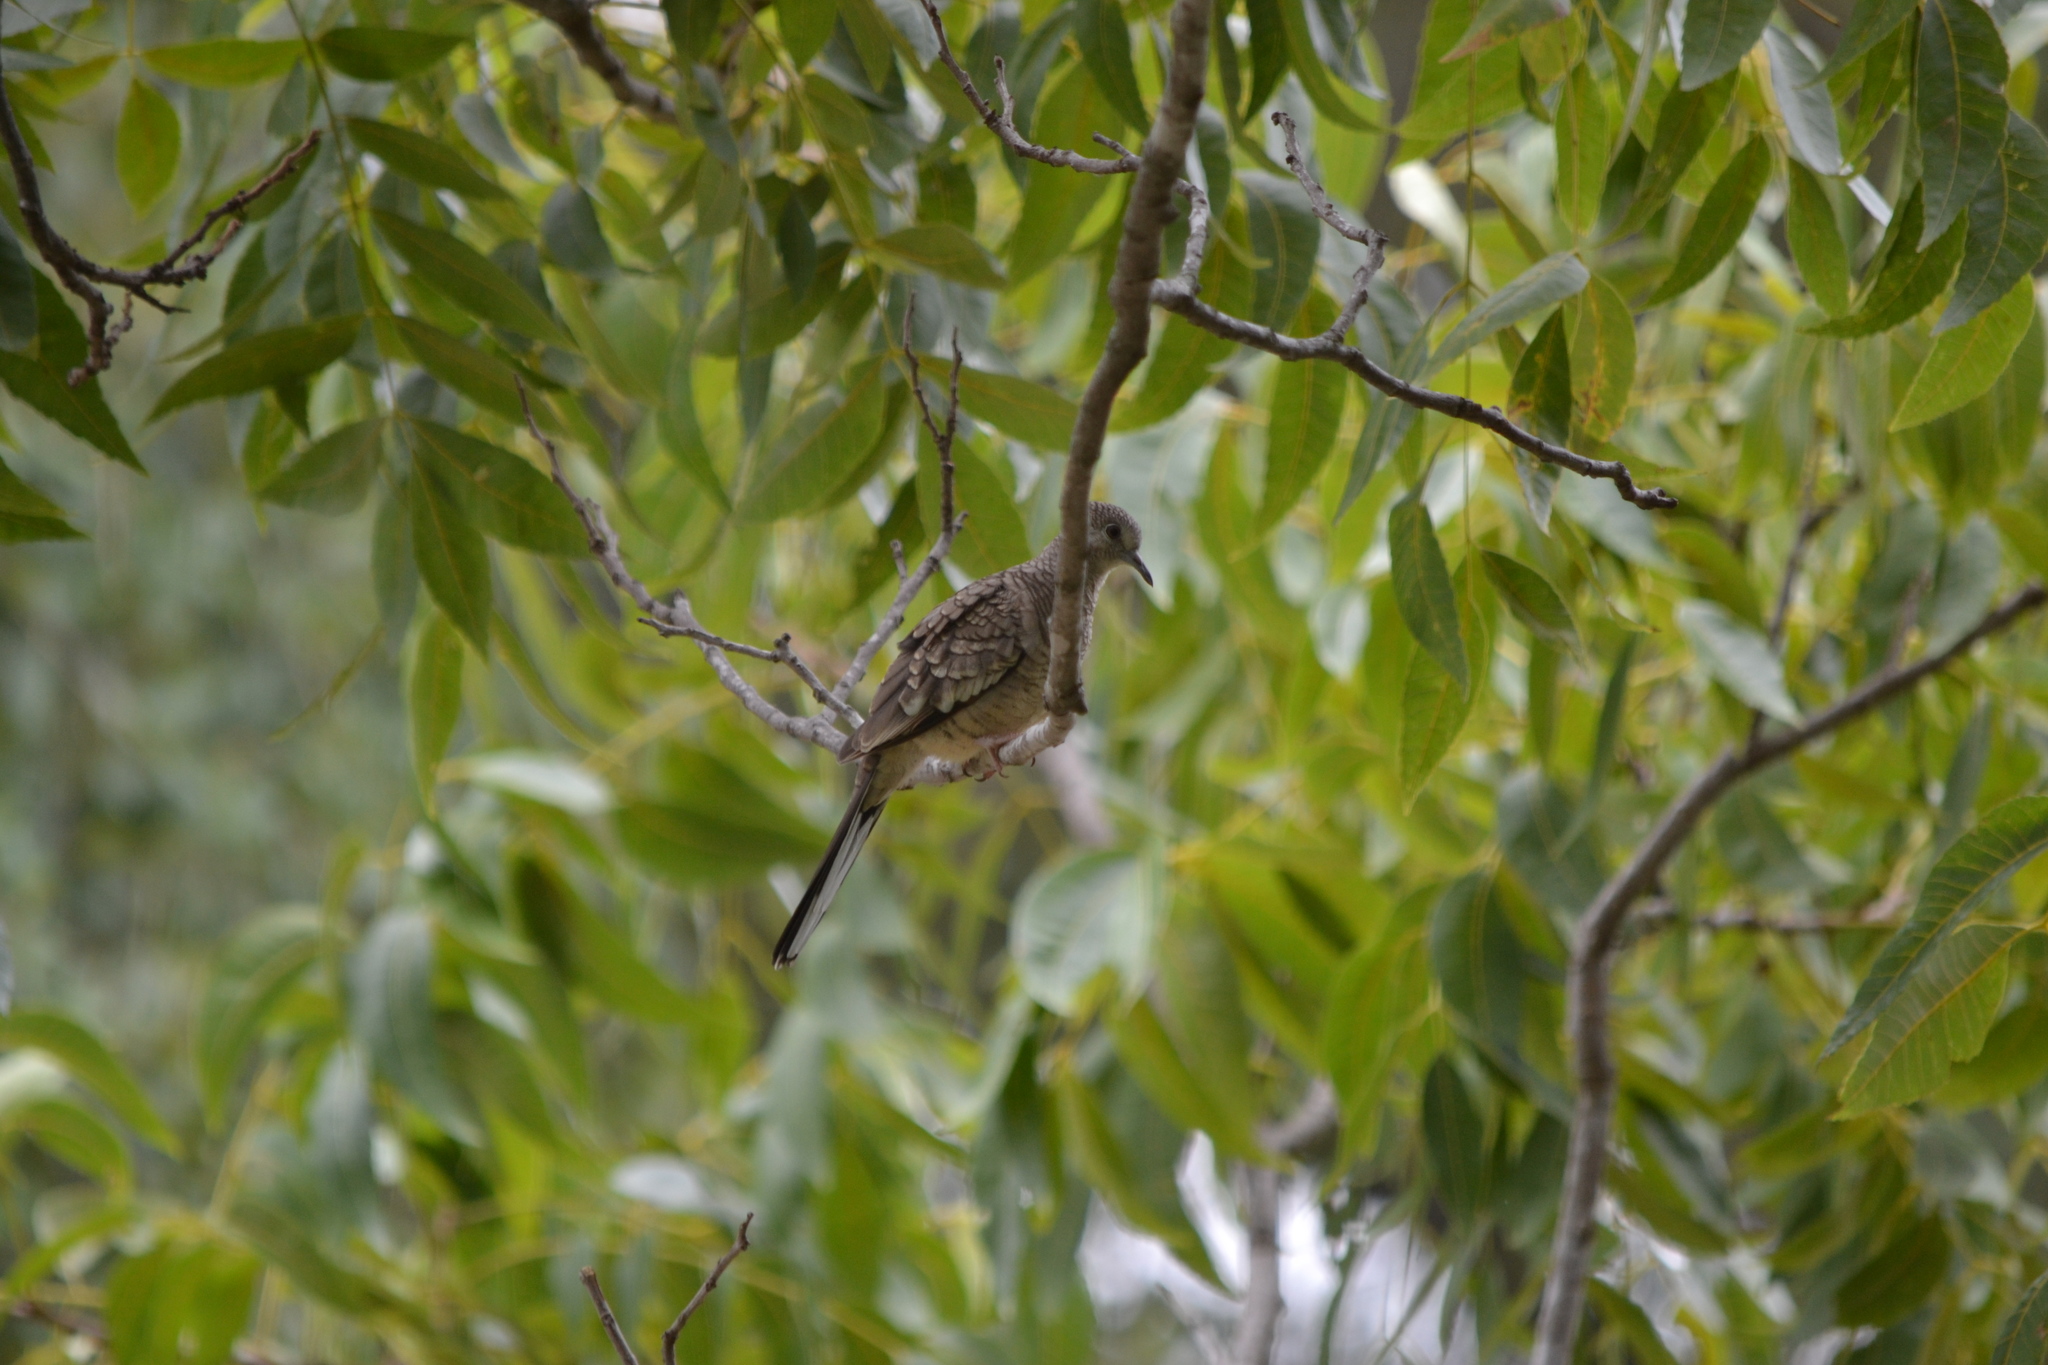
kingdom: Animalia
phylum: Chordata
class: Aves
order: Columbiformes
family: Columbidae
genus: Columbina
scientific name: Columbina inca
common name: Inca dove
